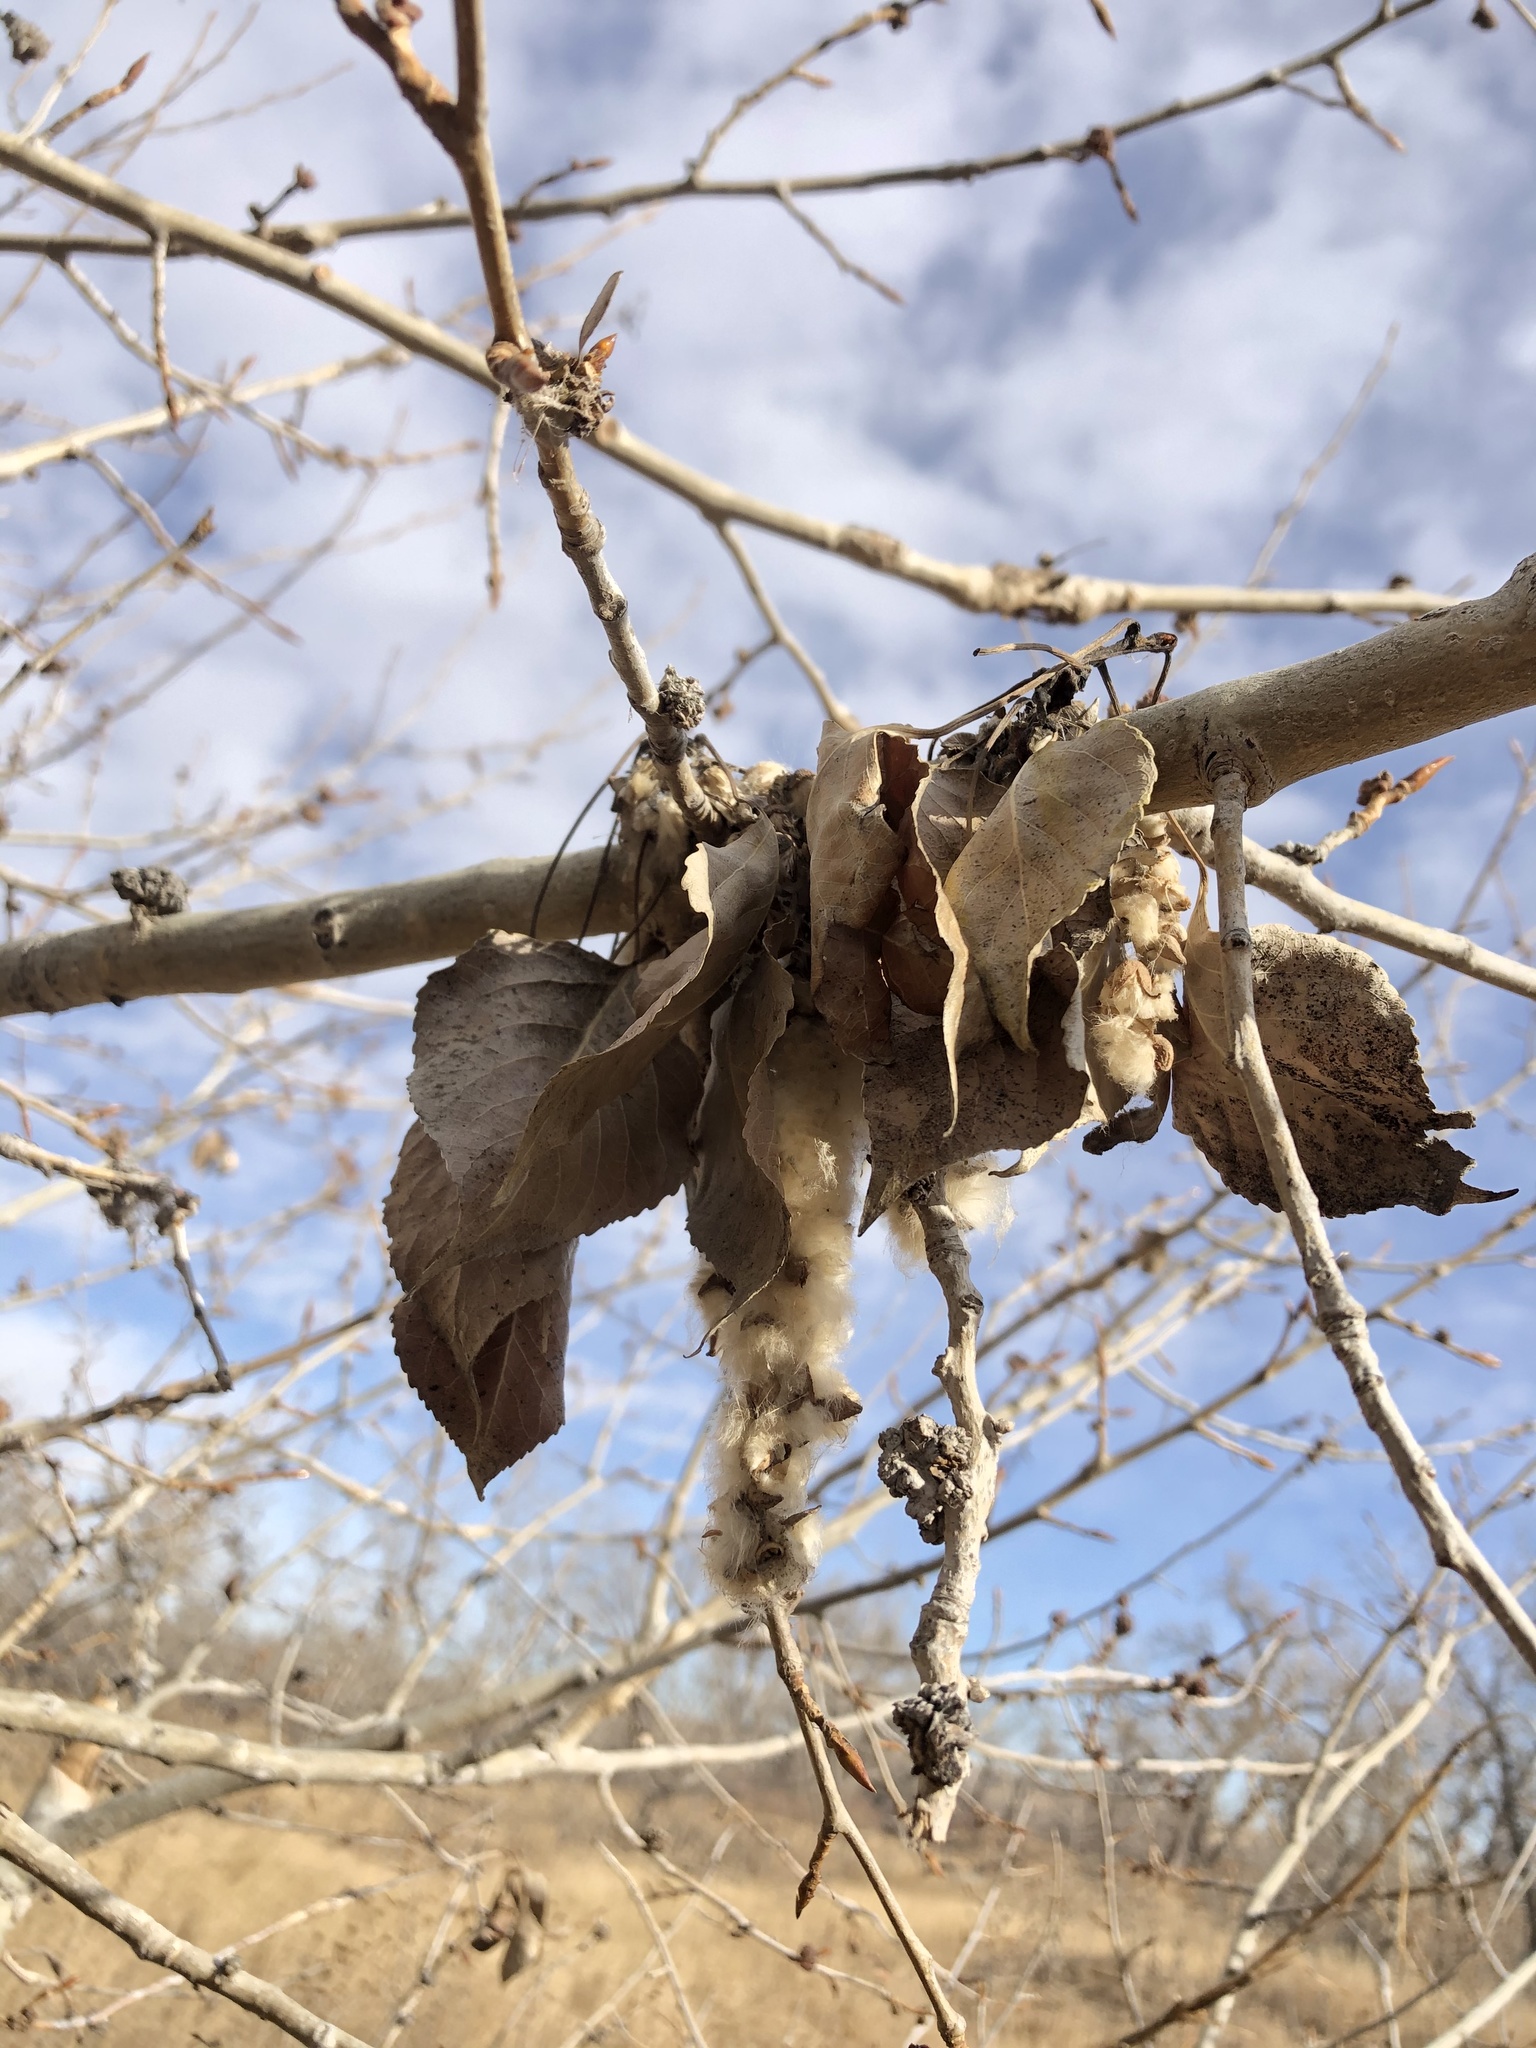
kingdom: Plantae
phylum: Tracheophyta
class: Magnoliopsida
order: Malpighiales
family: Salicaceae
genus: Populus
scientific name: Populus deltoides
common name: Eastern cottonwood
